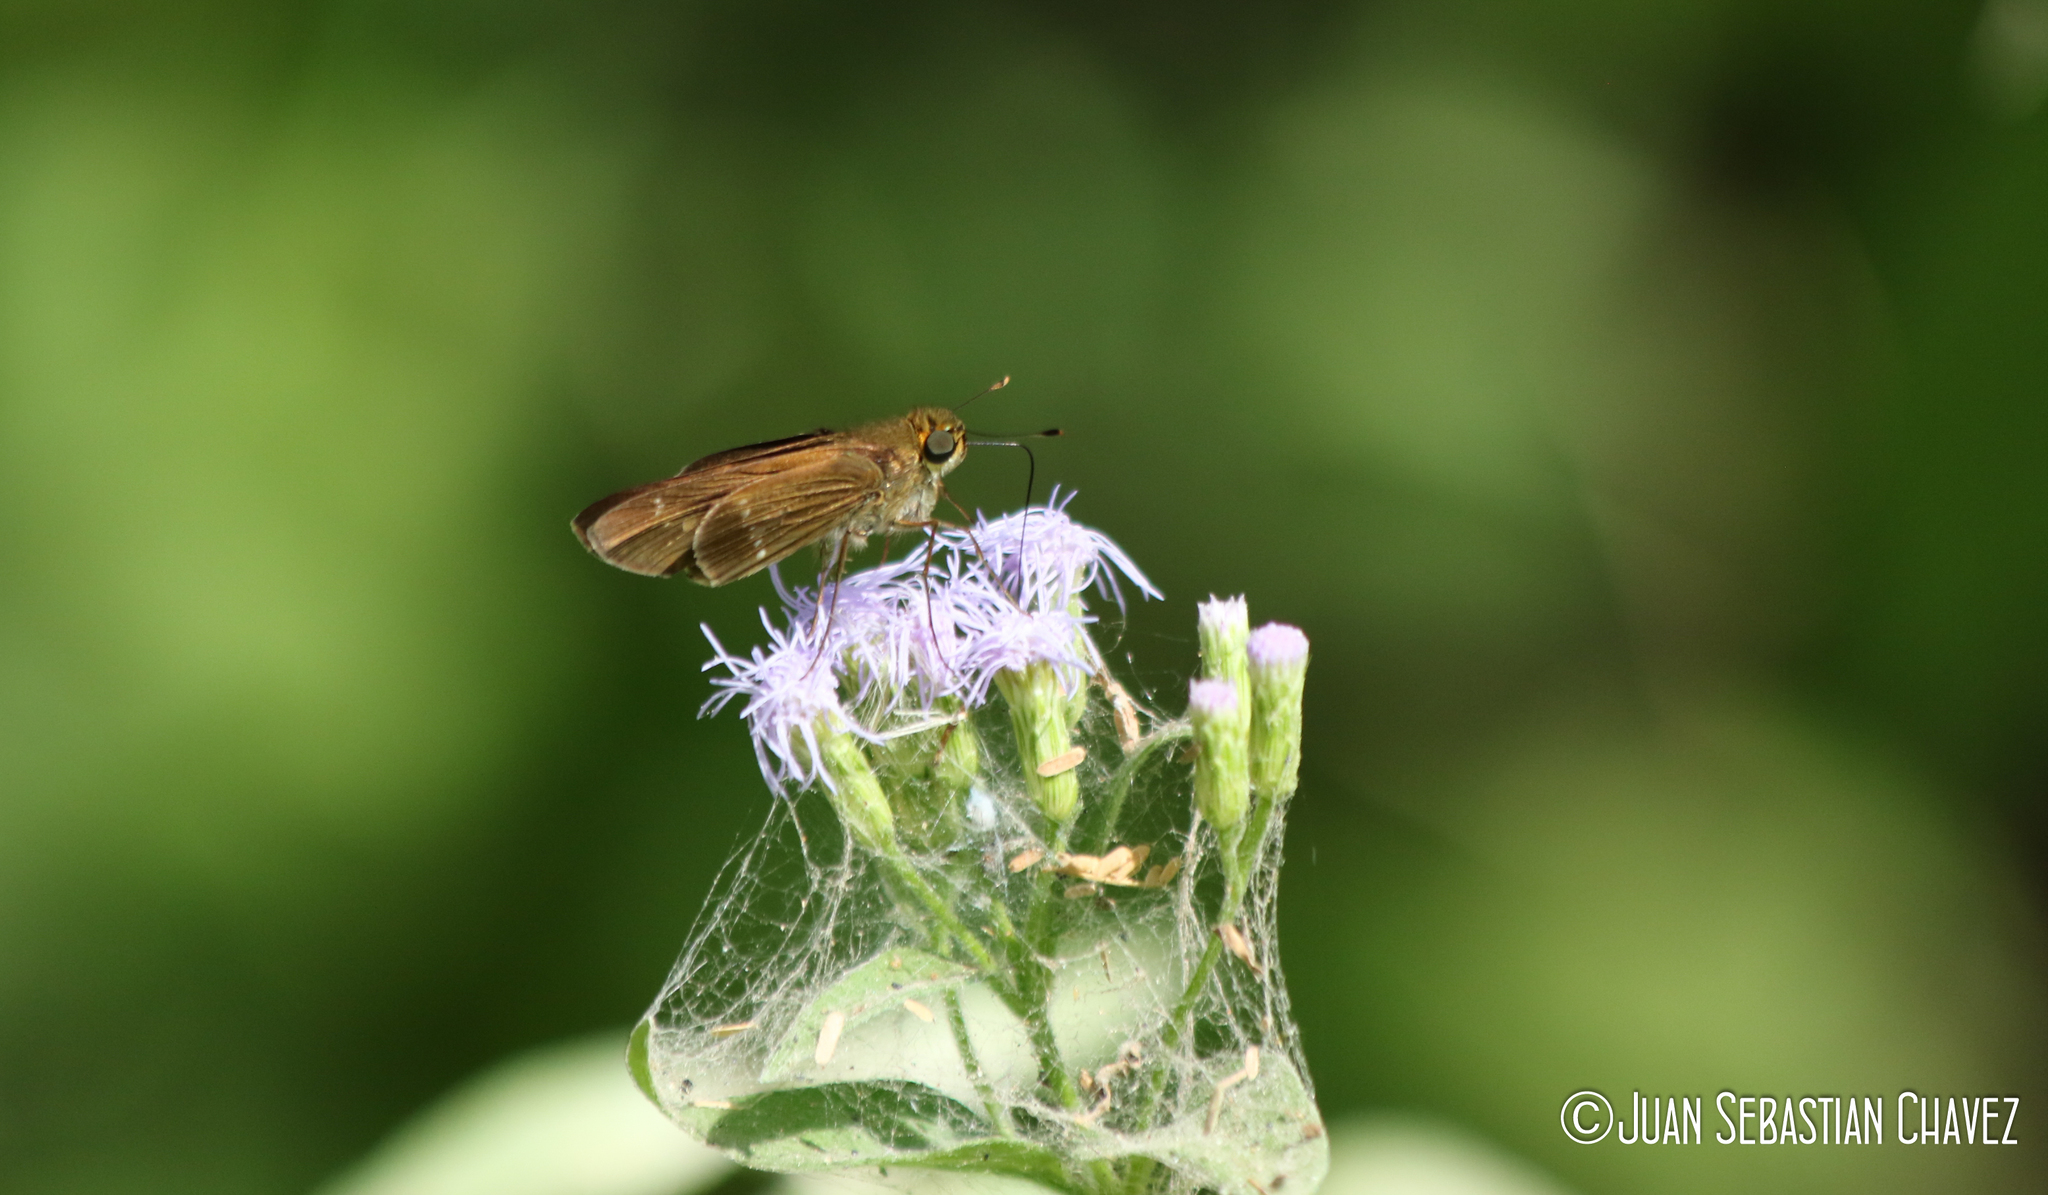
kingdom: Animalia
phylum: Arthropoda
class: Insecta
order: Lepidoptera
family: Hesperiidae
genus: Turesis
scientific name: Turesis lucas
